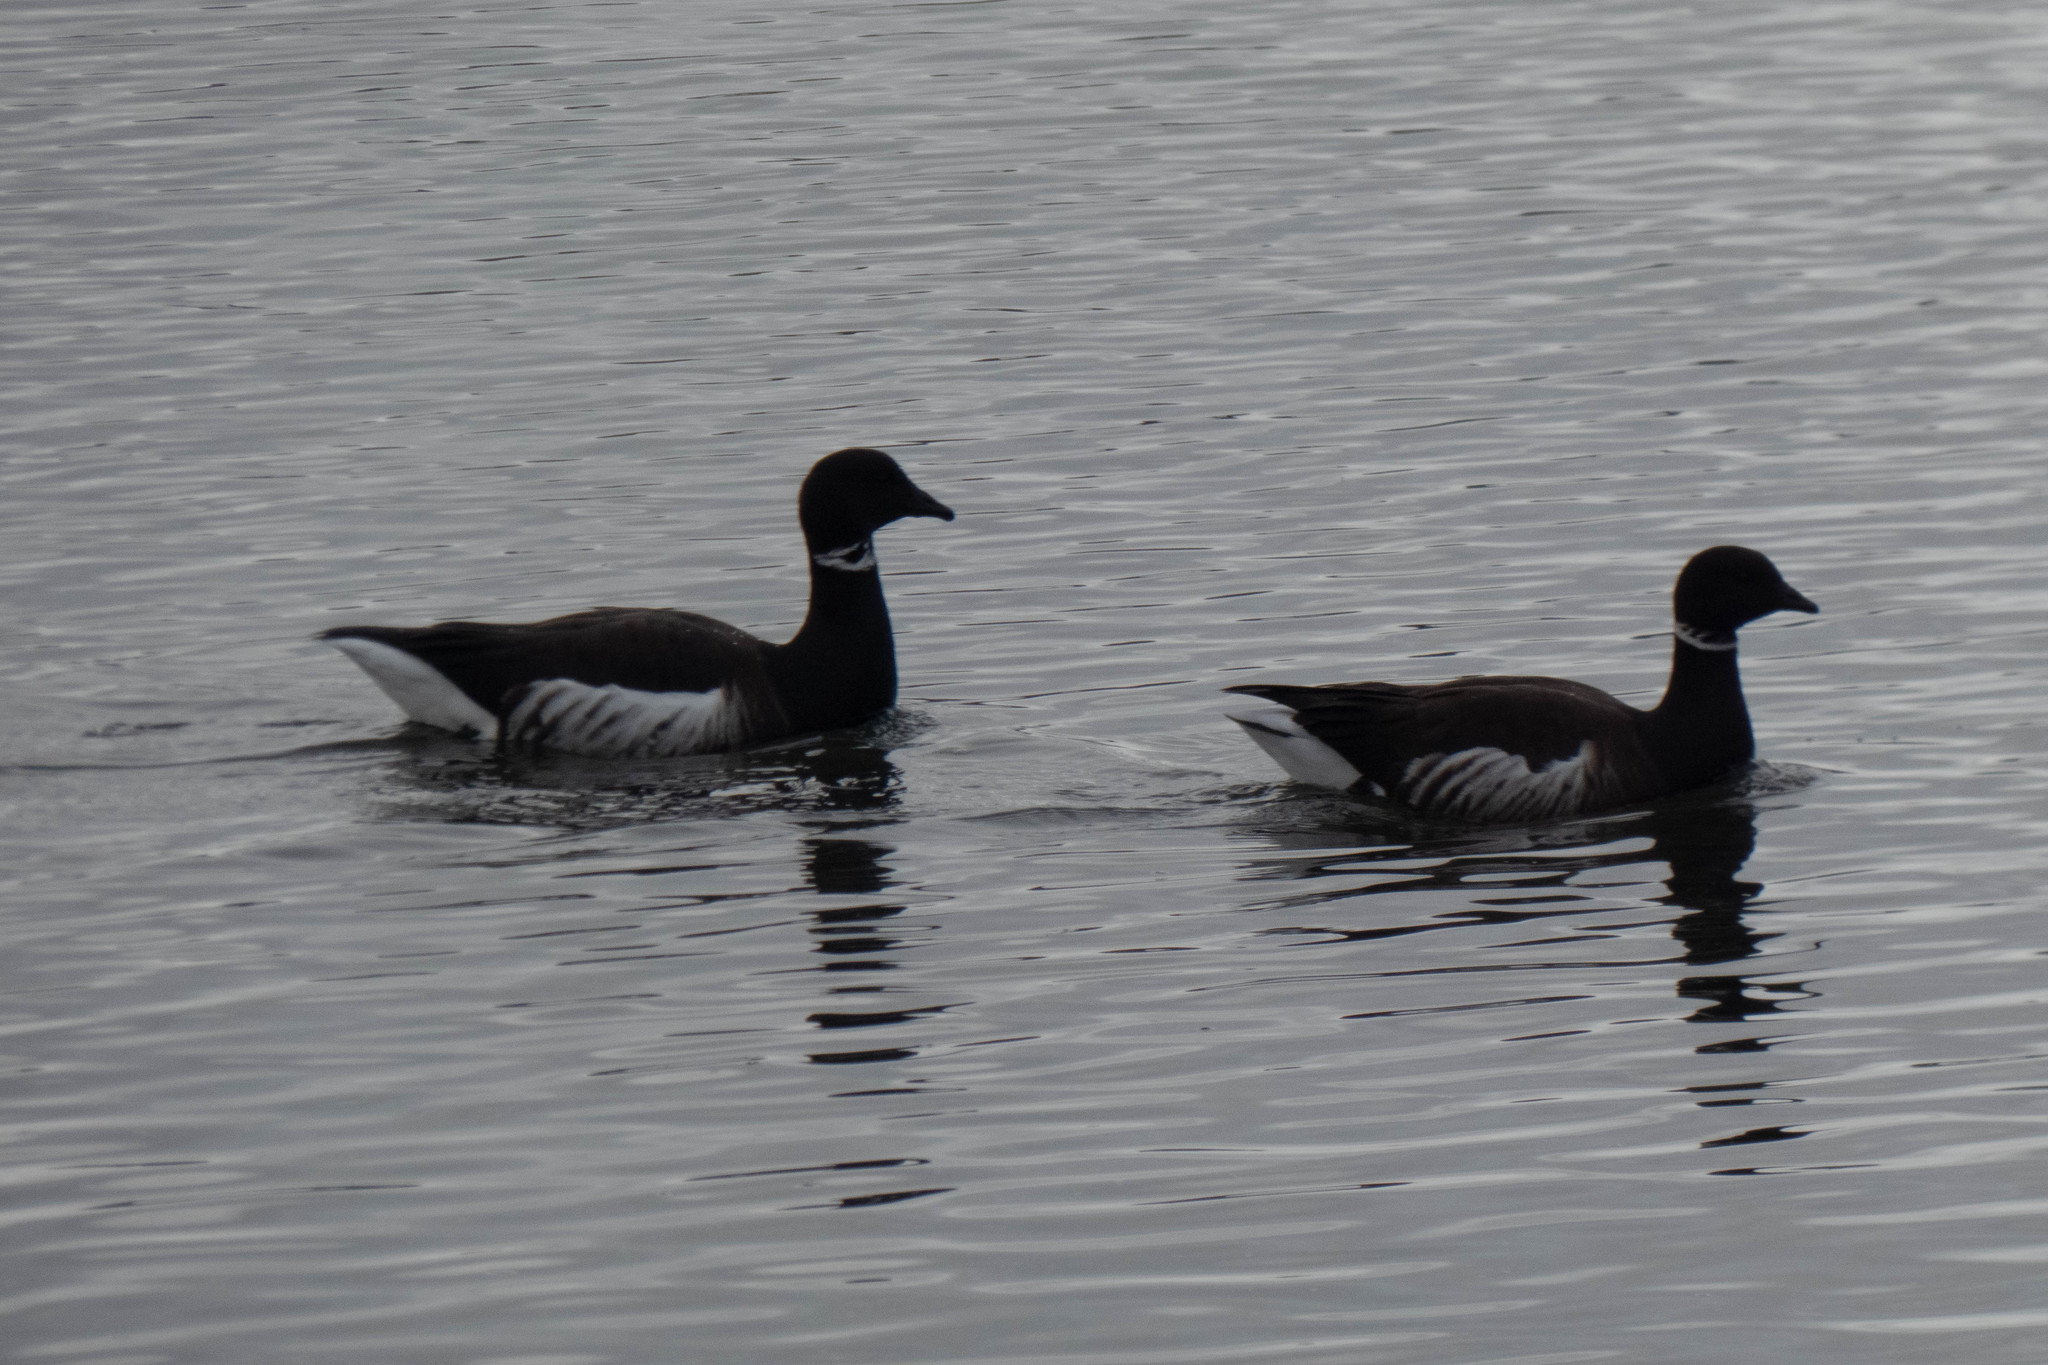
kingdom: Animalia
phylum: Chordata
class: Aves
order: Anseriformes
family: Anatidae
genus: Branta
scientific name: Branta bernicla
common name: Brant goose
